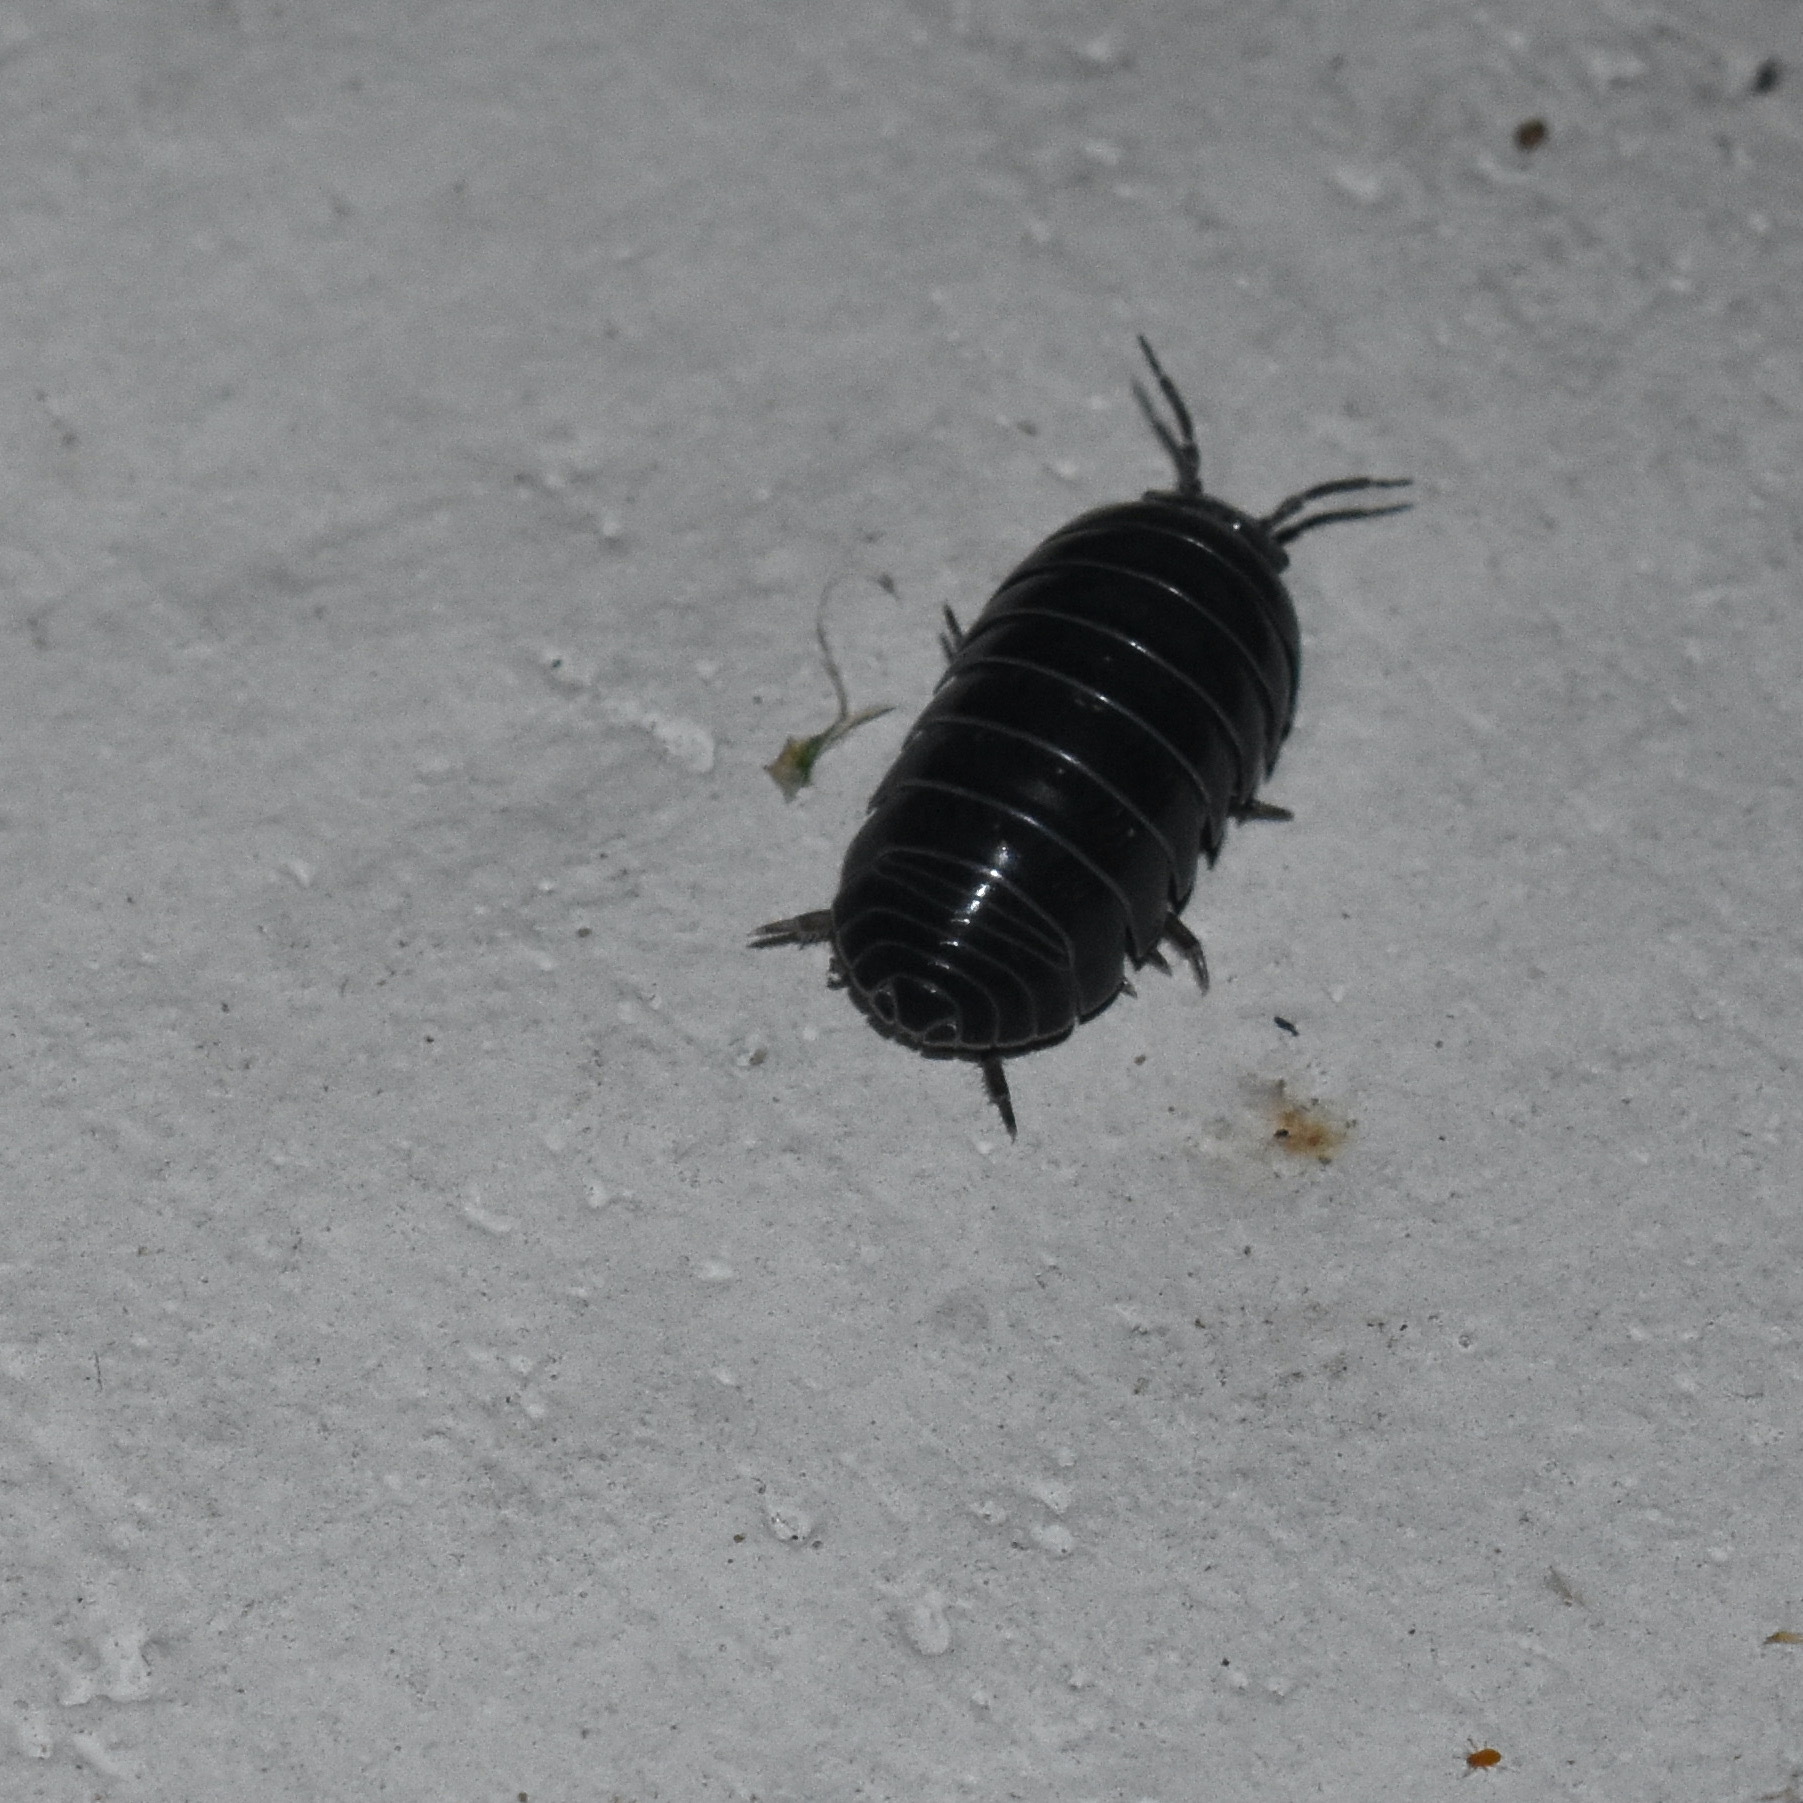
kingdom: Animalia
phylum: Arthropoda
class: Malacostraca
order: Isopoda
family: Armadillidiidae
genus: Armadillidium
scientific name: Armadillidium vulgare
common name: Common pill woodlouse
